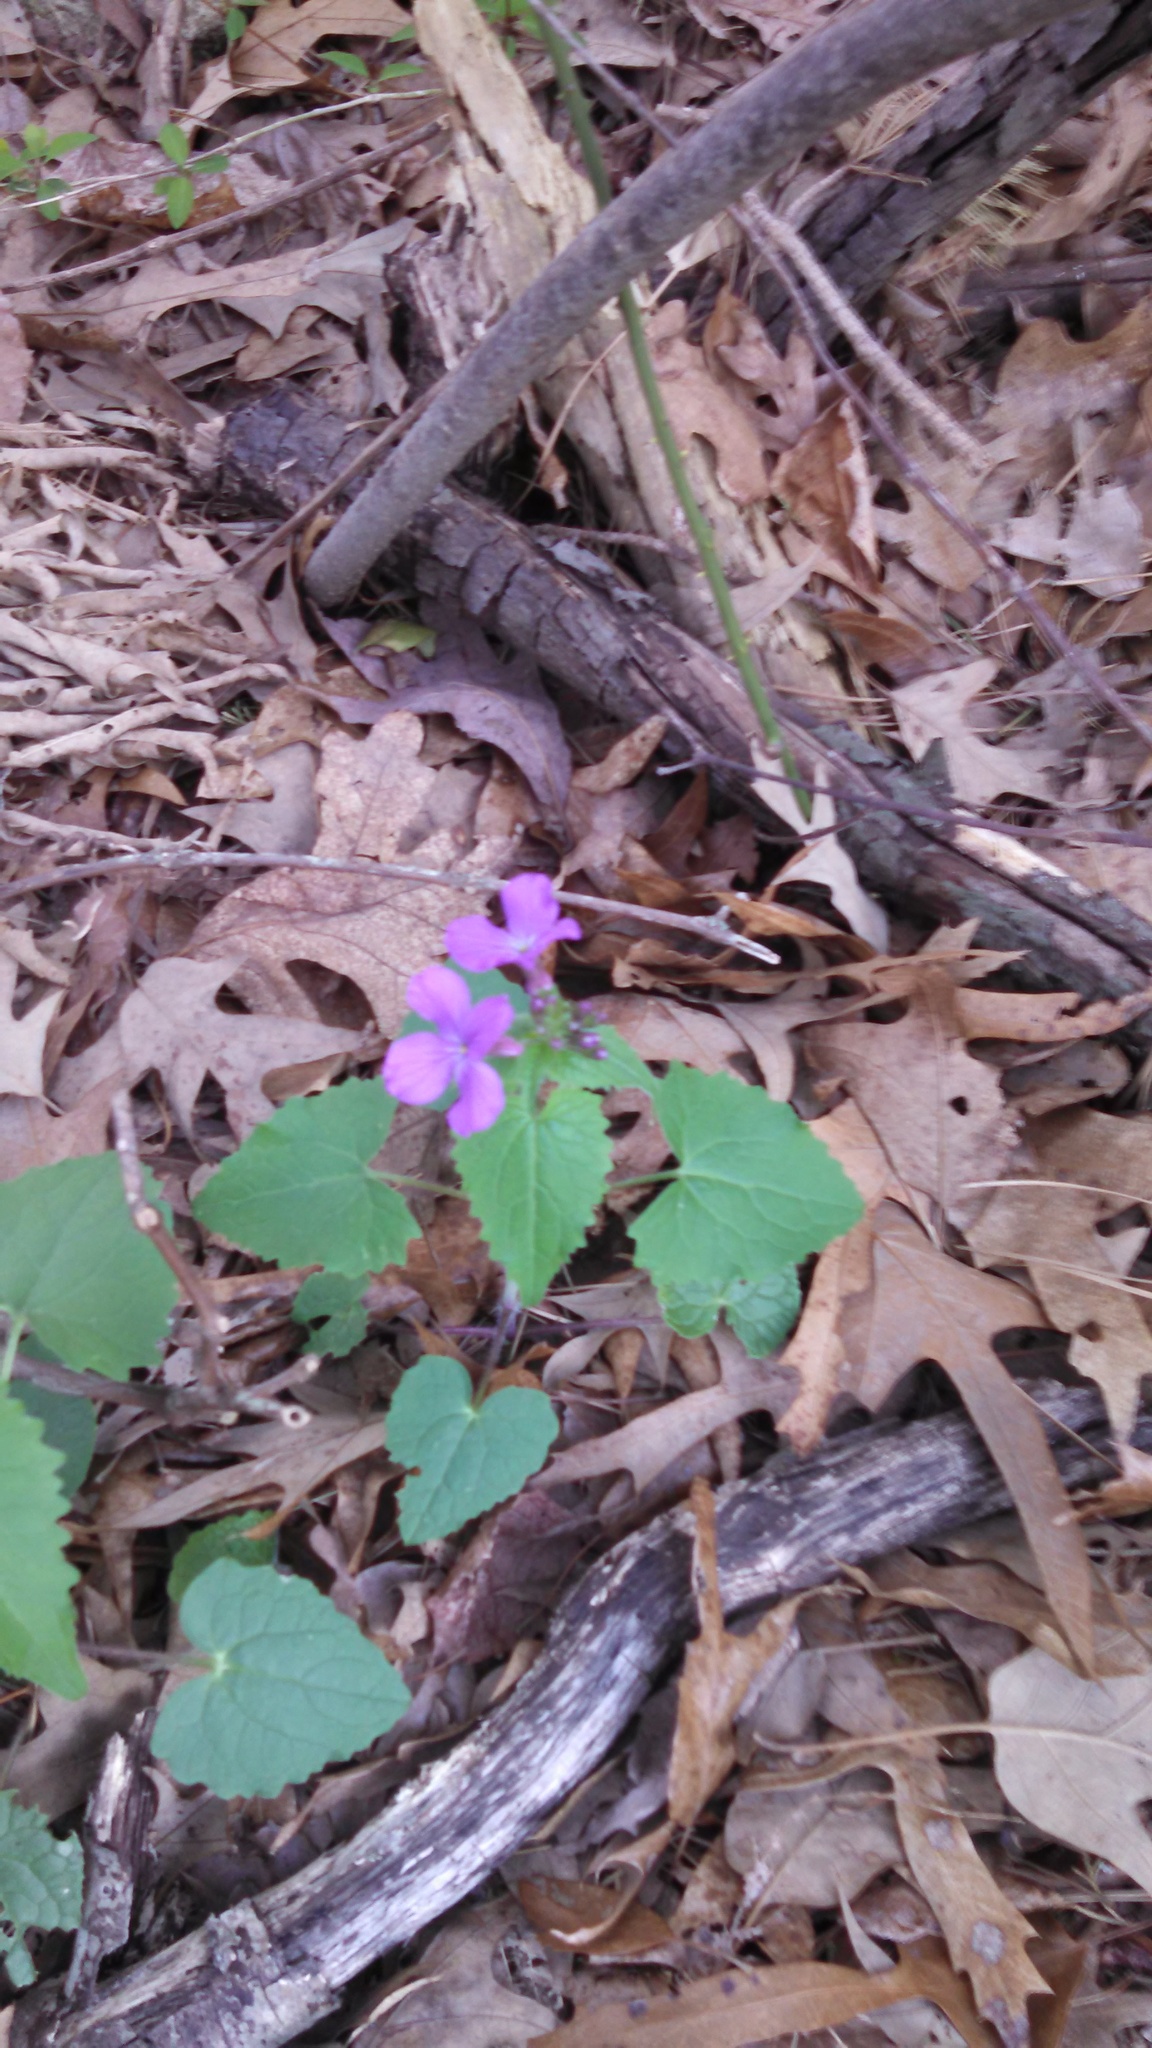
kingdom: Plantae
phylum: Tracheophyta
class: Magnoliopsida
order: Brassicales
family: Brassicaceae
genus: Lunaria
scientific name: Lunaria annua
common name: Honesty
